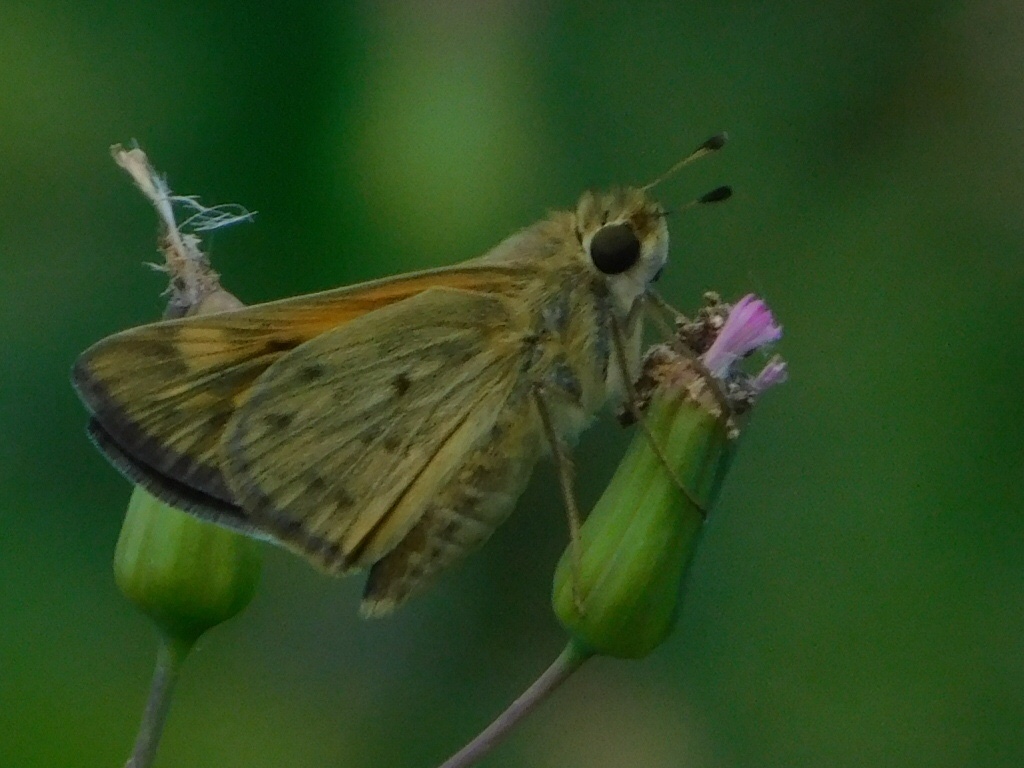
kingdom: Animalia
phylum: Arthropoda
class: Insecta
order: Lepidoptera
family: Hesperiidae
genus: Hylephila
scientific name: Hylephila phyleus
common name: Fiery skipper
